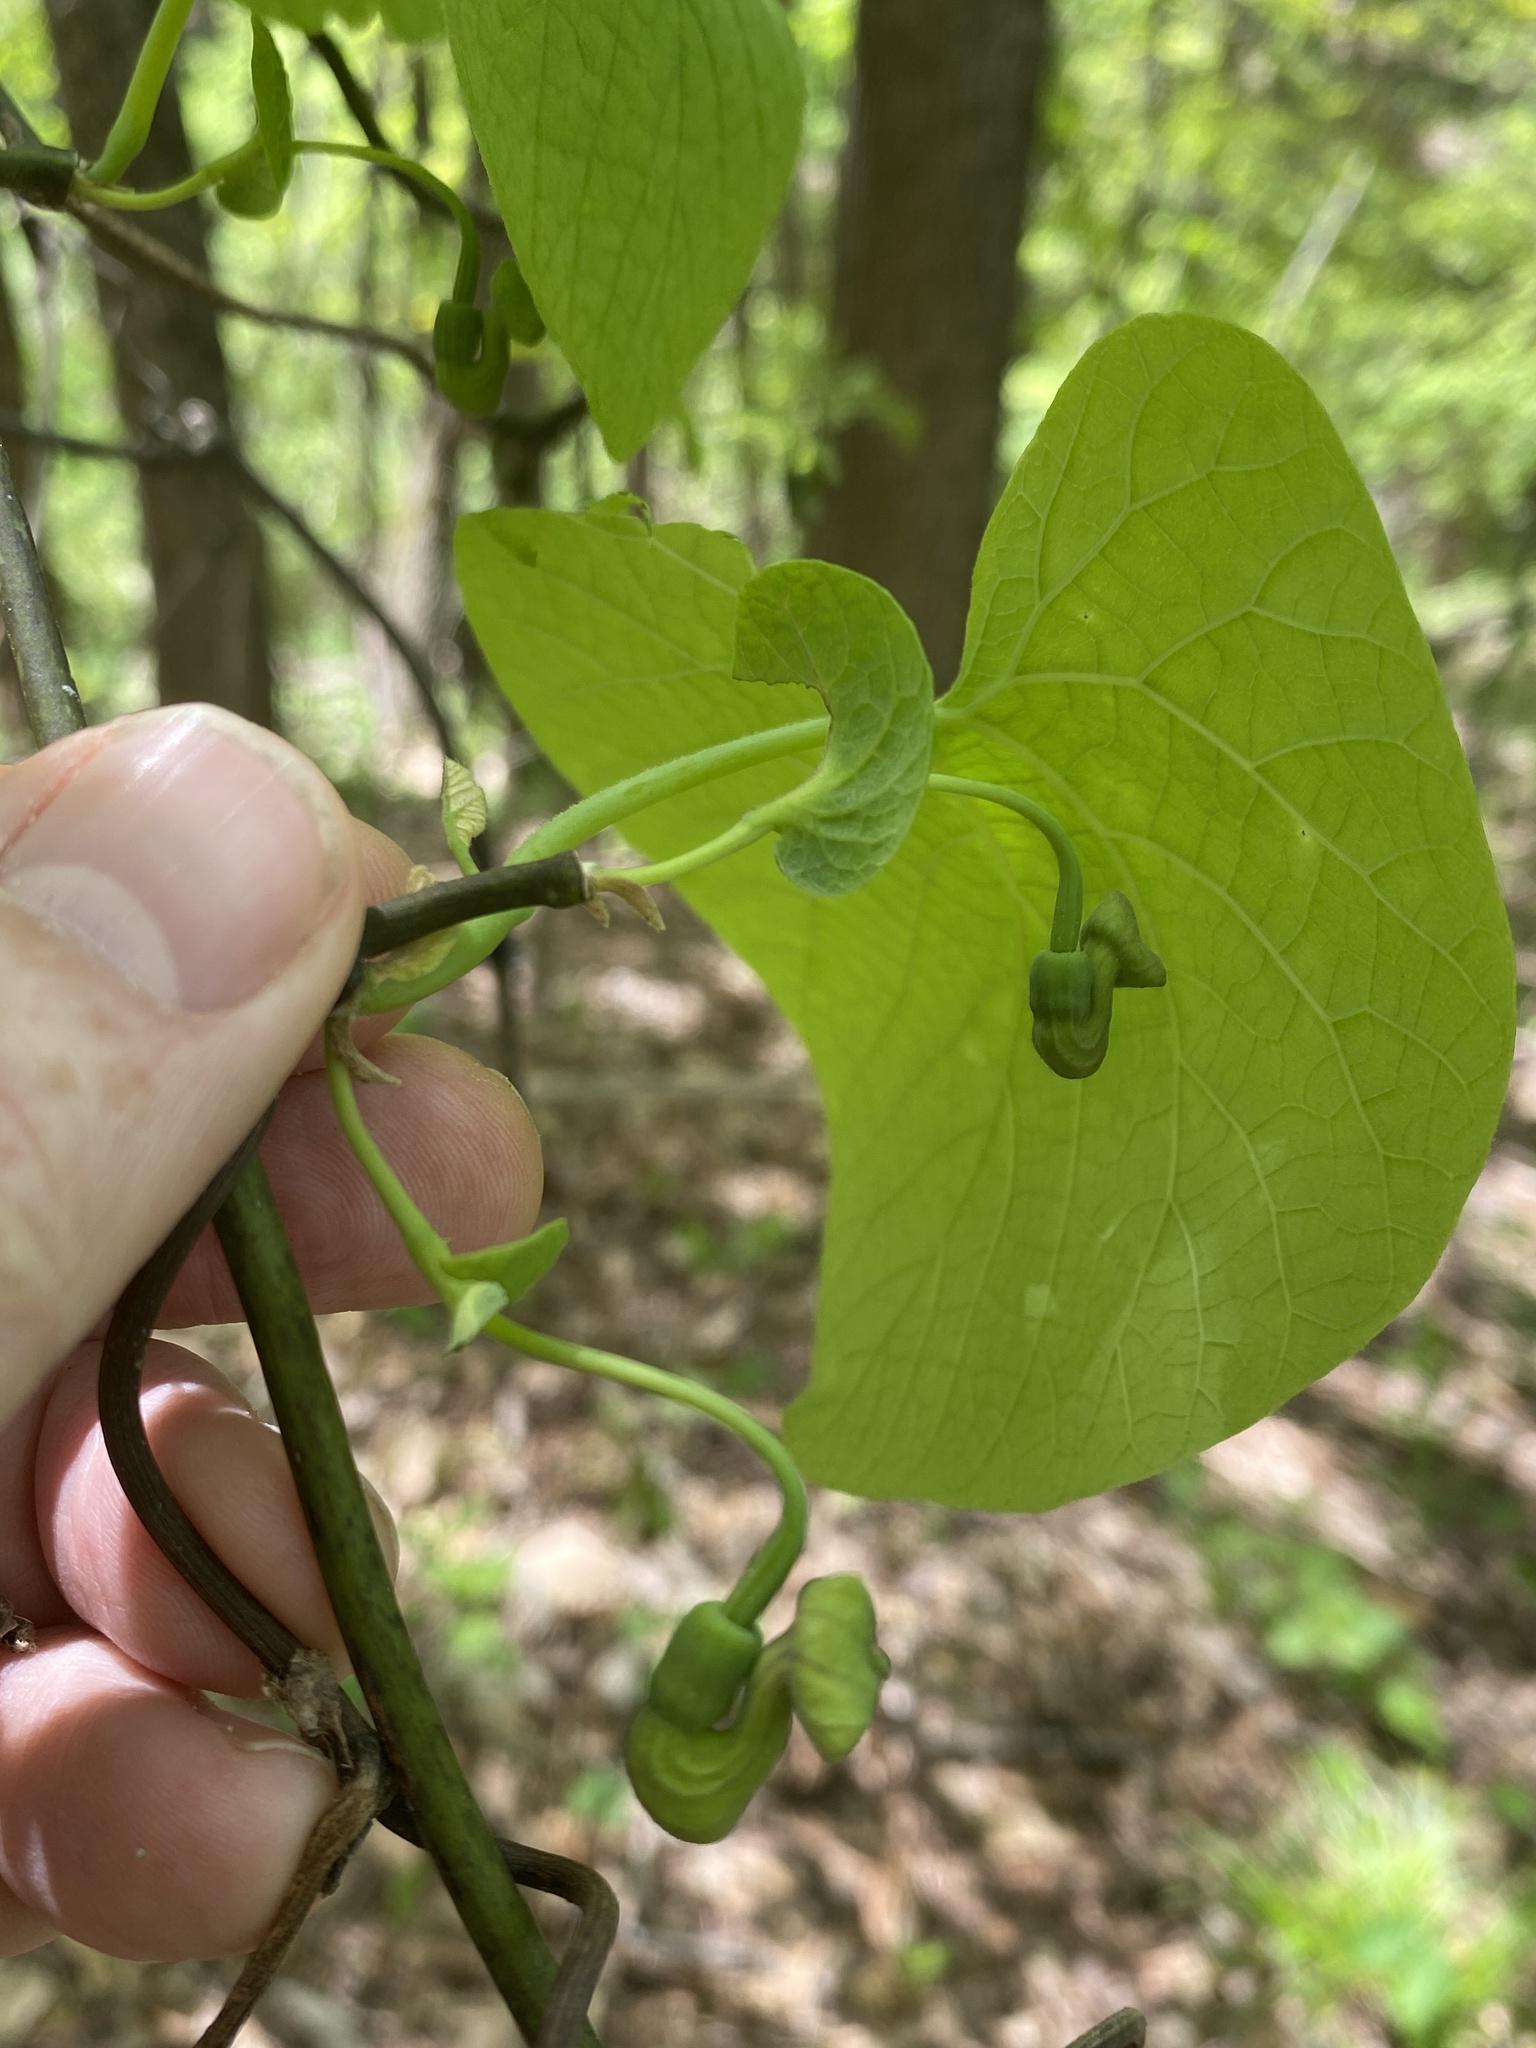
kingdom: Plantae
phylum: Tracheophyta
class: Magnoliopsida
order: Piperales
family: Aristolochiaceae
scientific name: Aristolochiaceae
